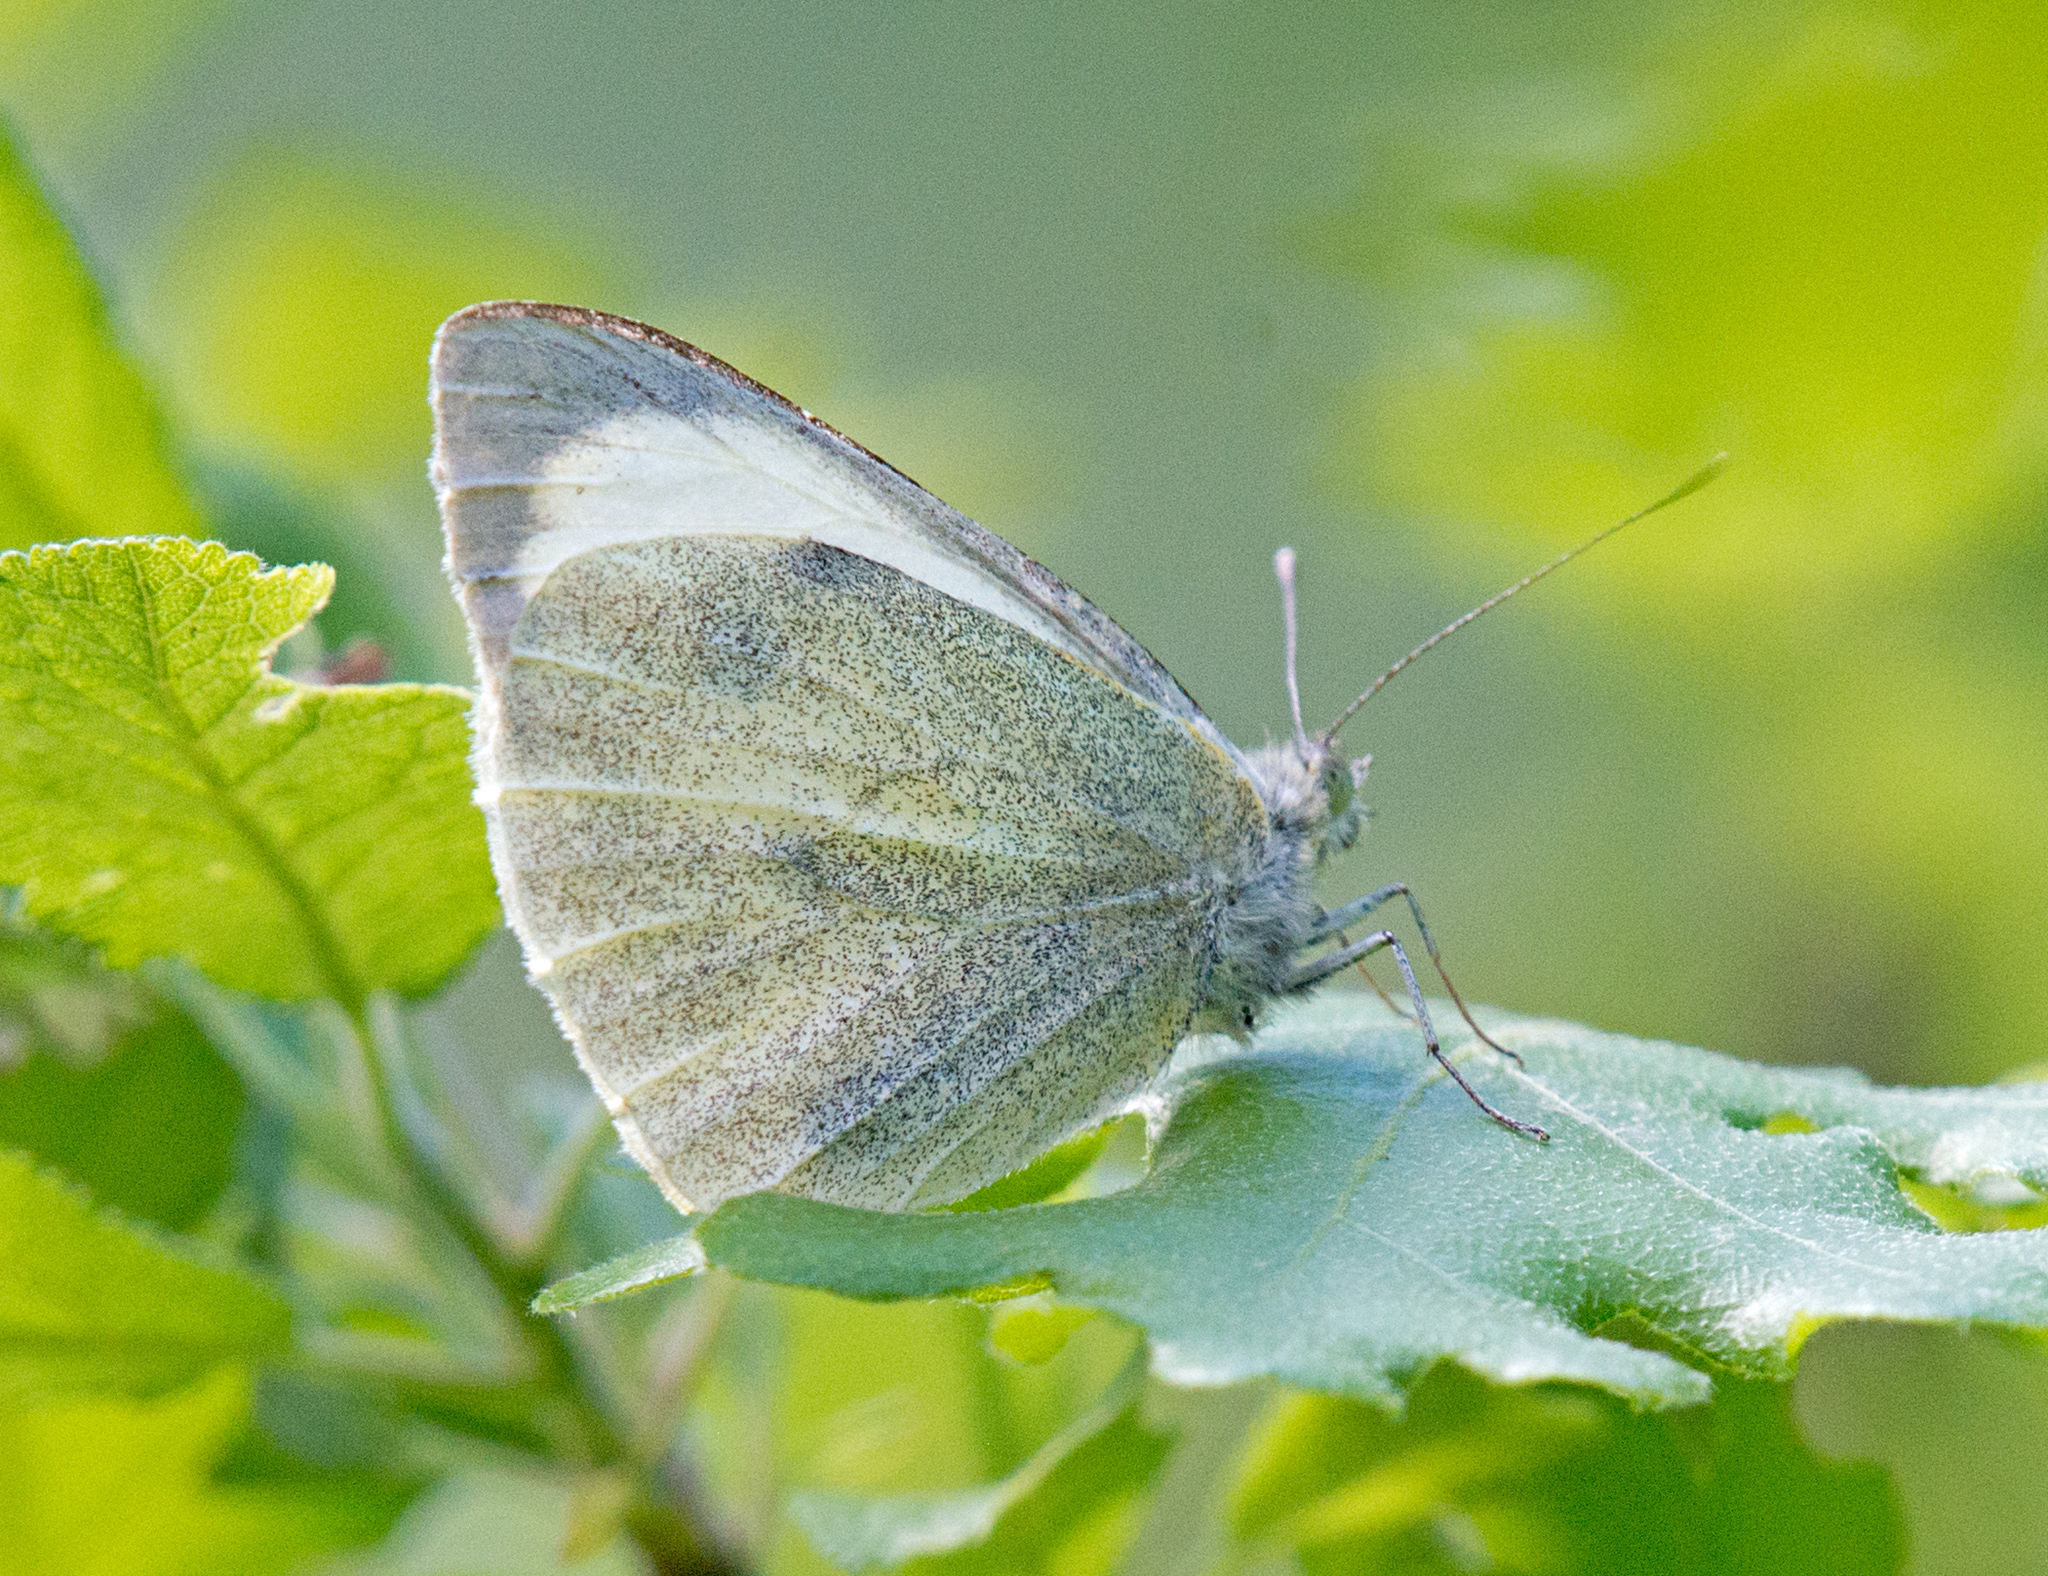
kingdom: Animalia
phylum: Arthropoda
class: Insecta
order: Lepidoptera
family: Pieridae
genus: Pieris
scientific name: Pieris brassicae
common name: Large white
